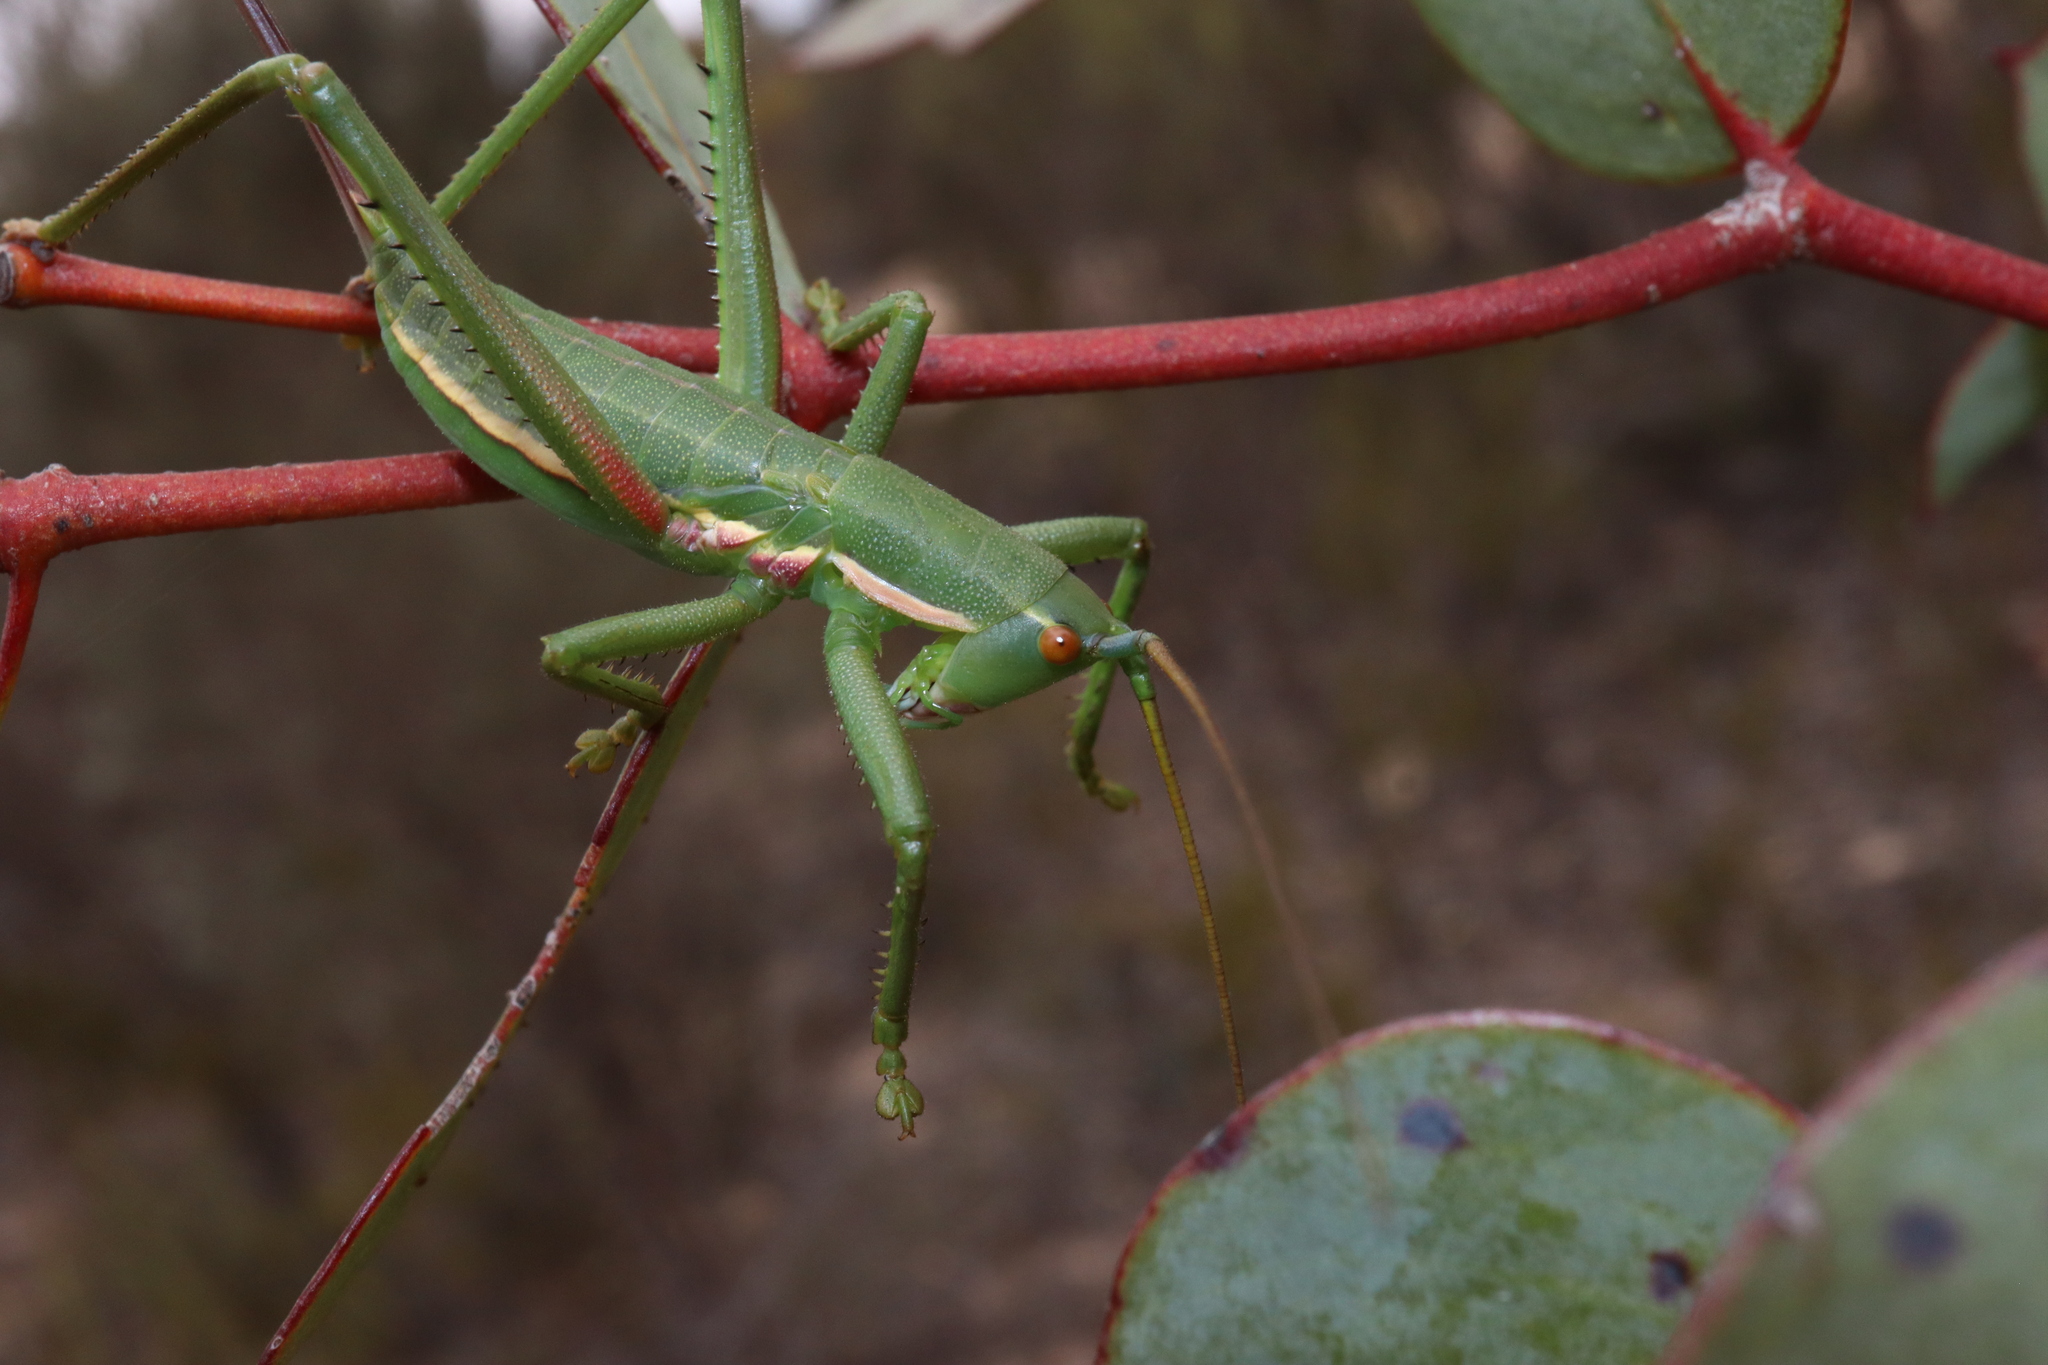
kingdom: Animalia
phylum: Arthropoda
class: Insecta
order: Orthoptera
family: Tettigoniidae
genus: Hemisaga
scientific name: Hemisaga denticulata
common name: Common sluggish katydid
